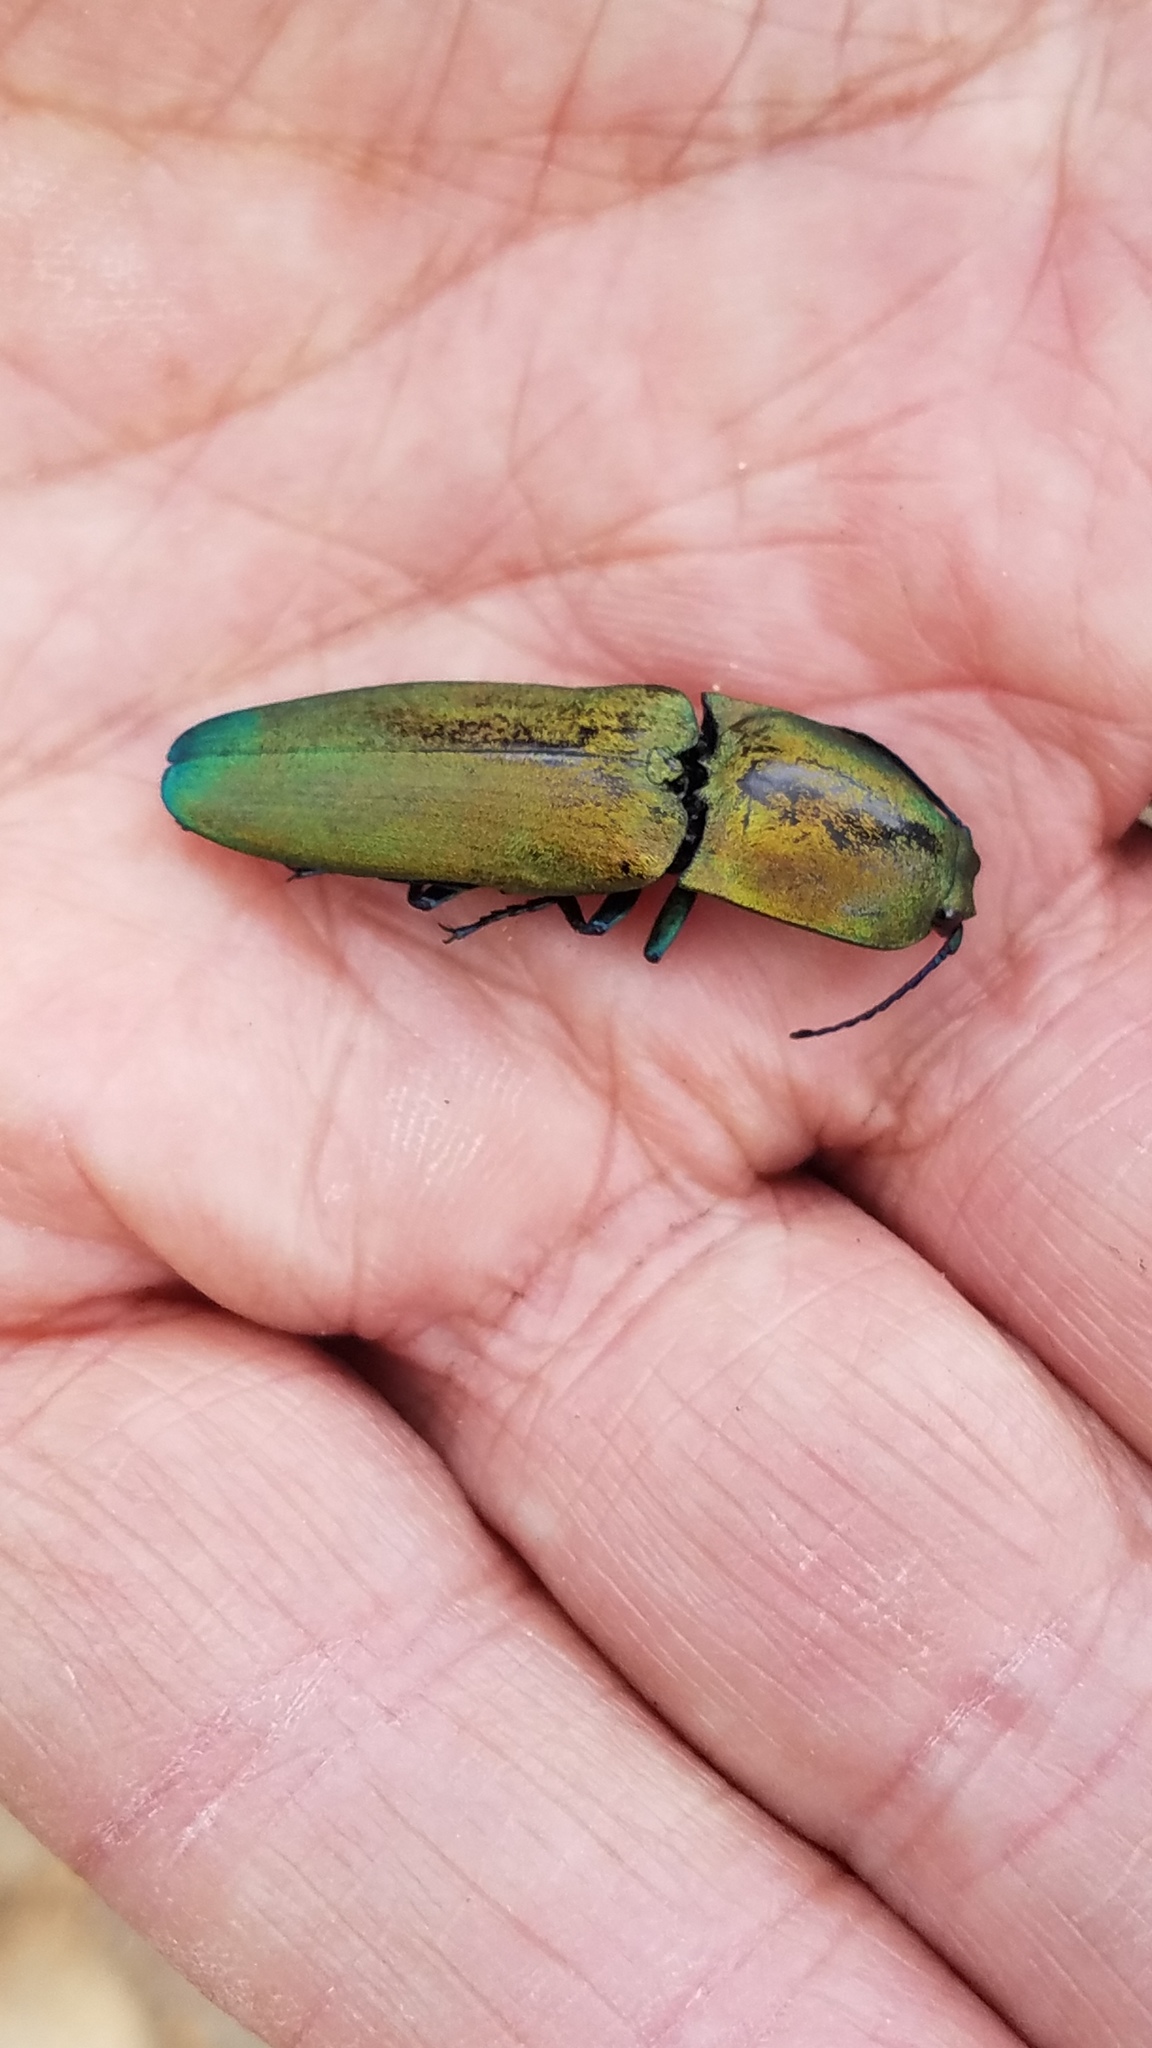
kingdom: Animalia
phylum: Arthropoda
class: Insecta
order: Coleoptera
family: Elateridae
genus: Chalcolepidius
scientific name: Chalcolepidius
